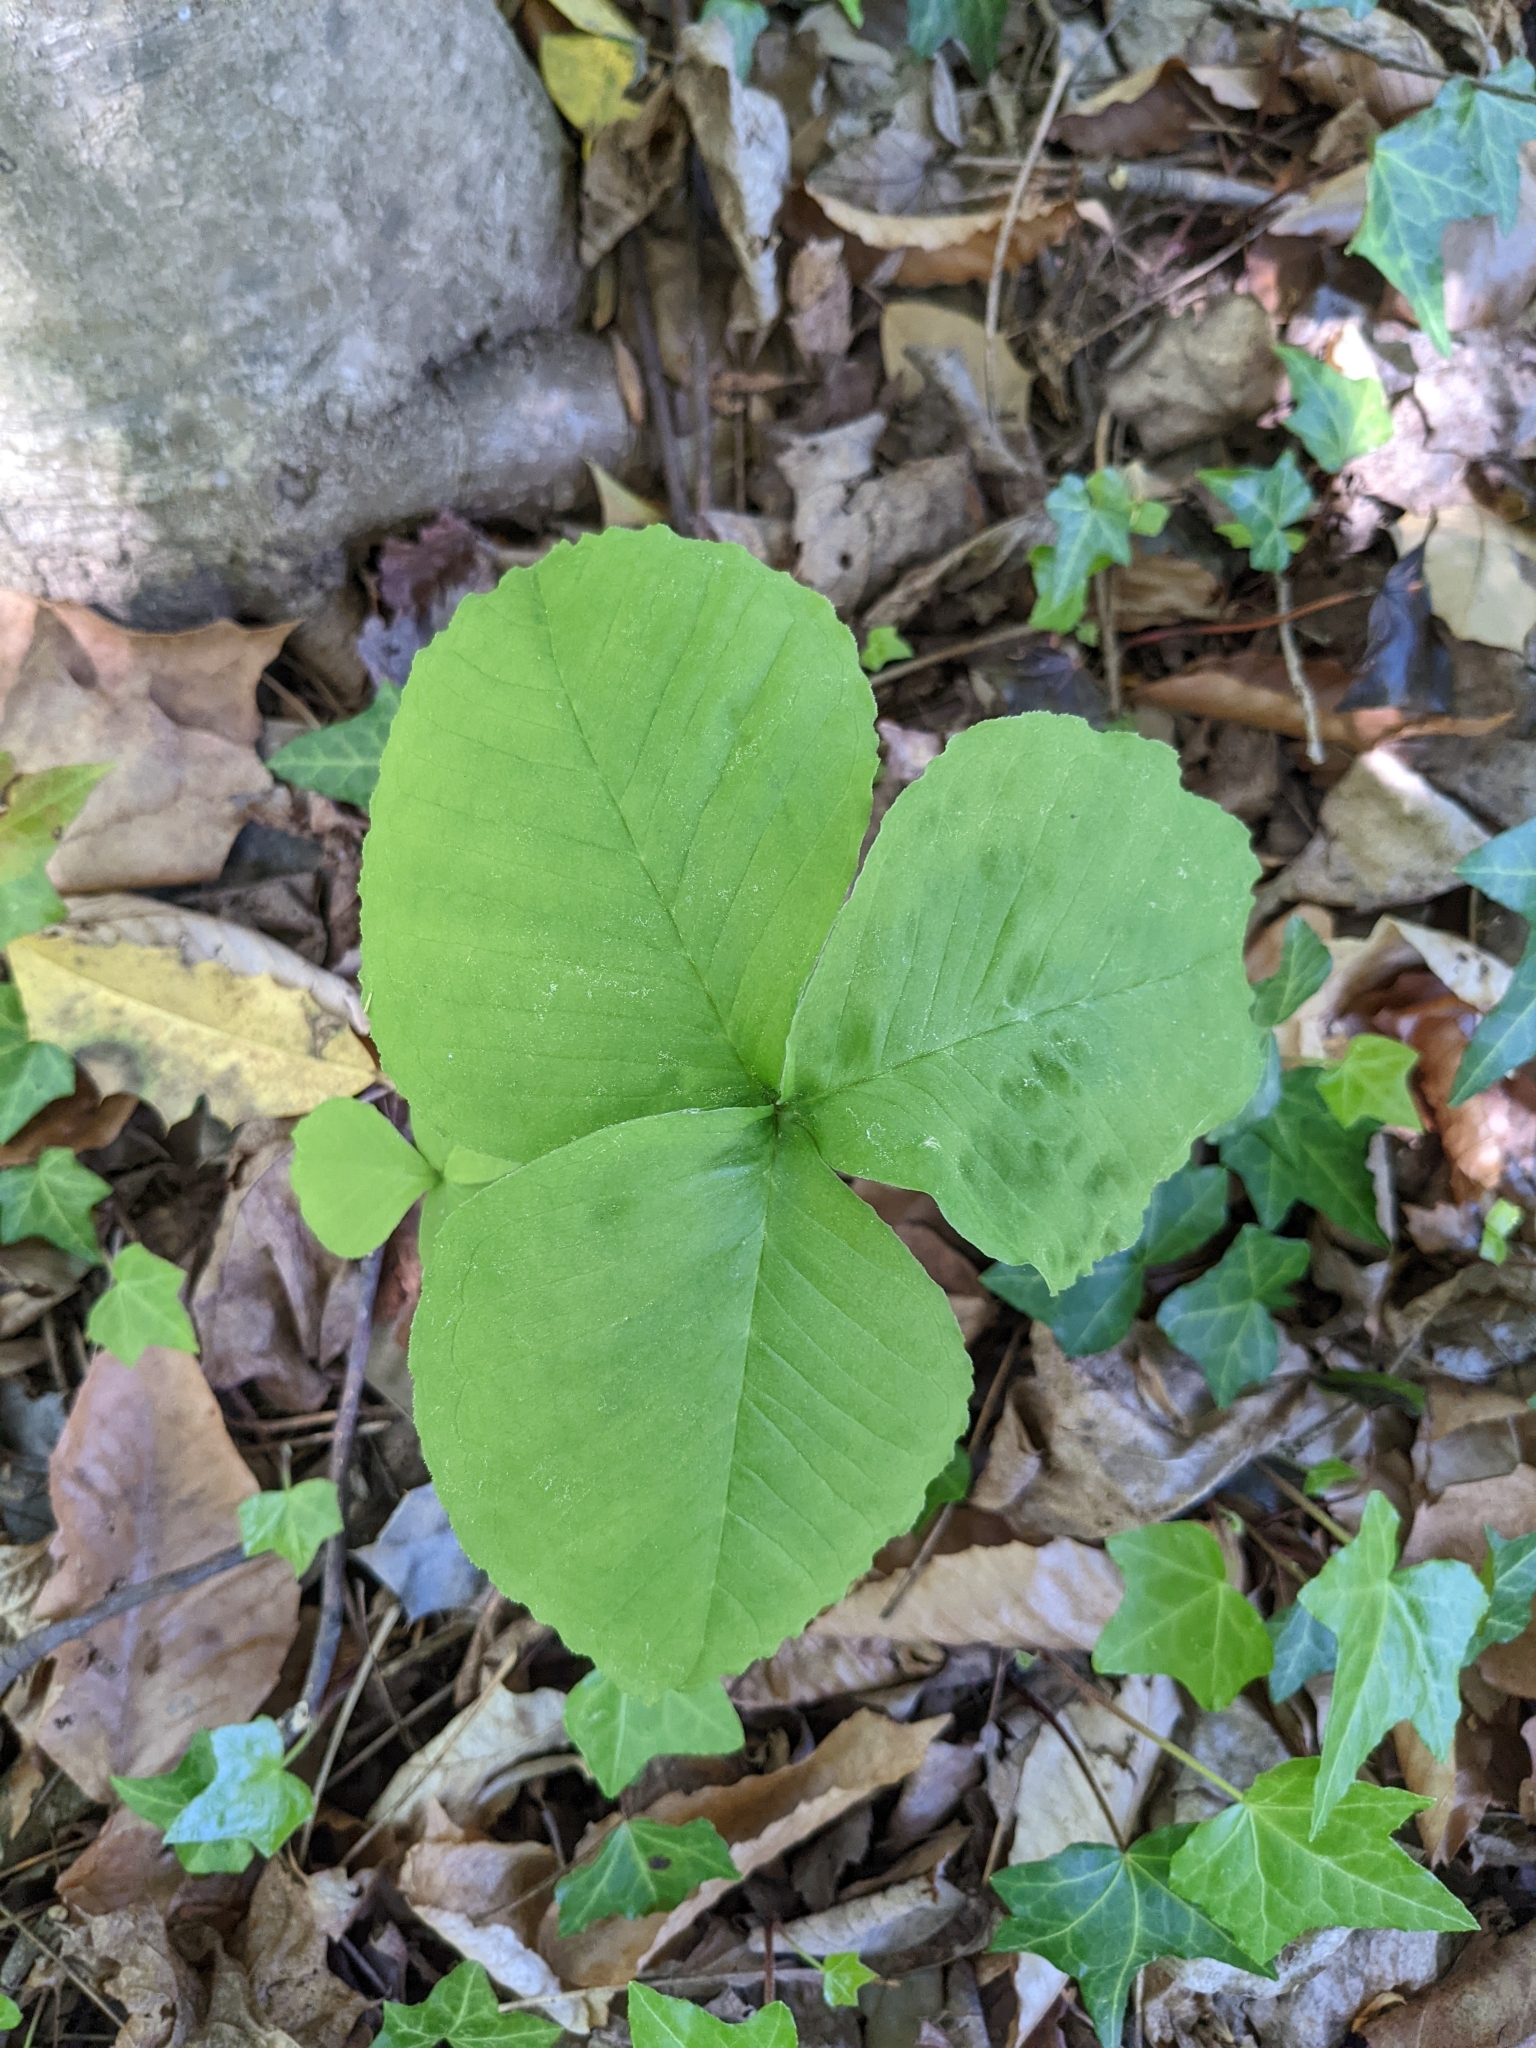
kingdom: Plantae
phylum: Tracheophyta
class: Liliopsida
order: Alismatales
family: Araceae
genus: Arisaema
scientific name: Arisaema triphyllum
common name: Jack-in-the-pulpit
